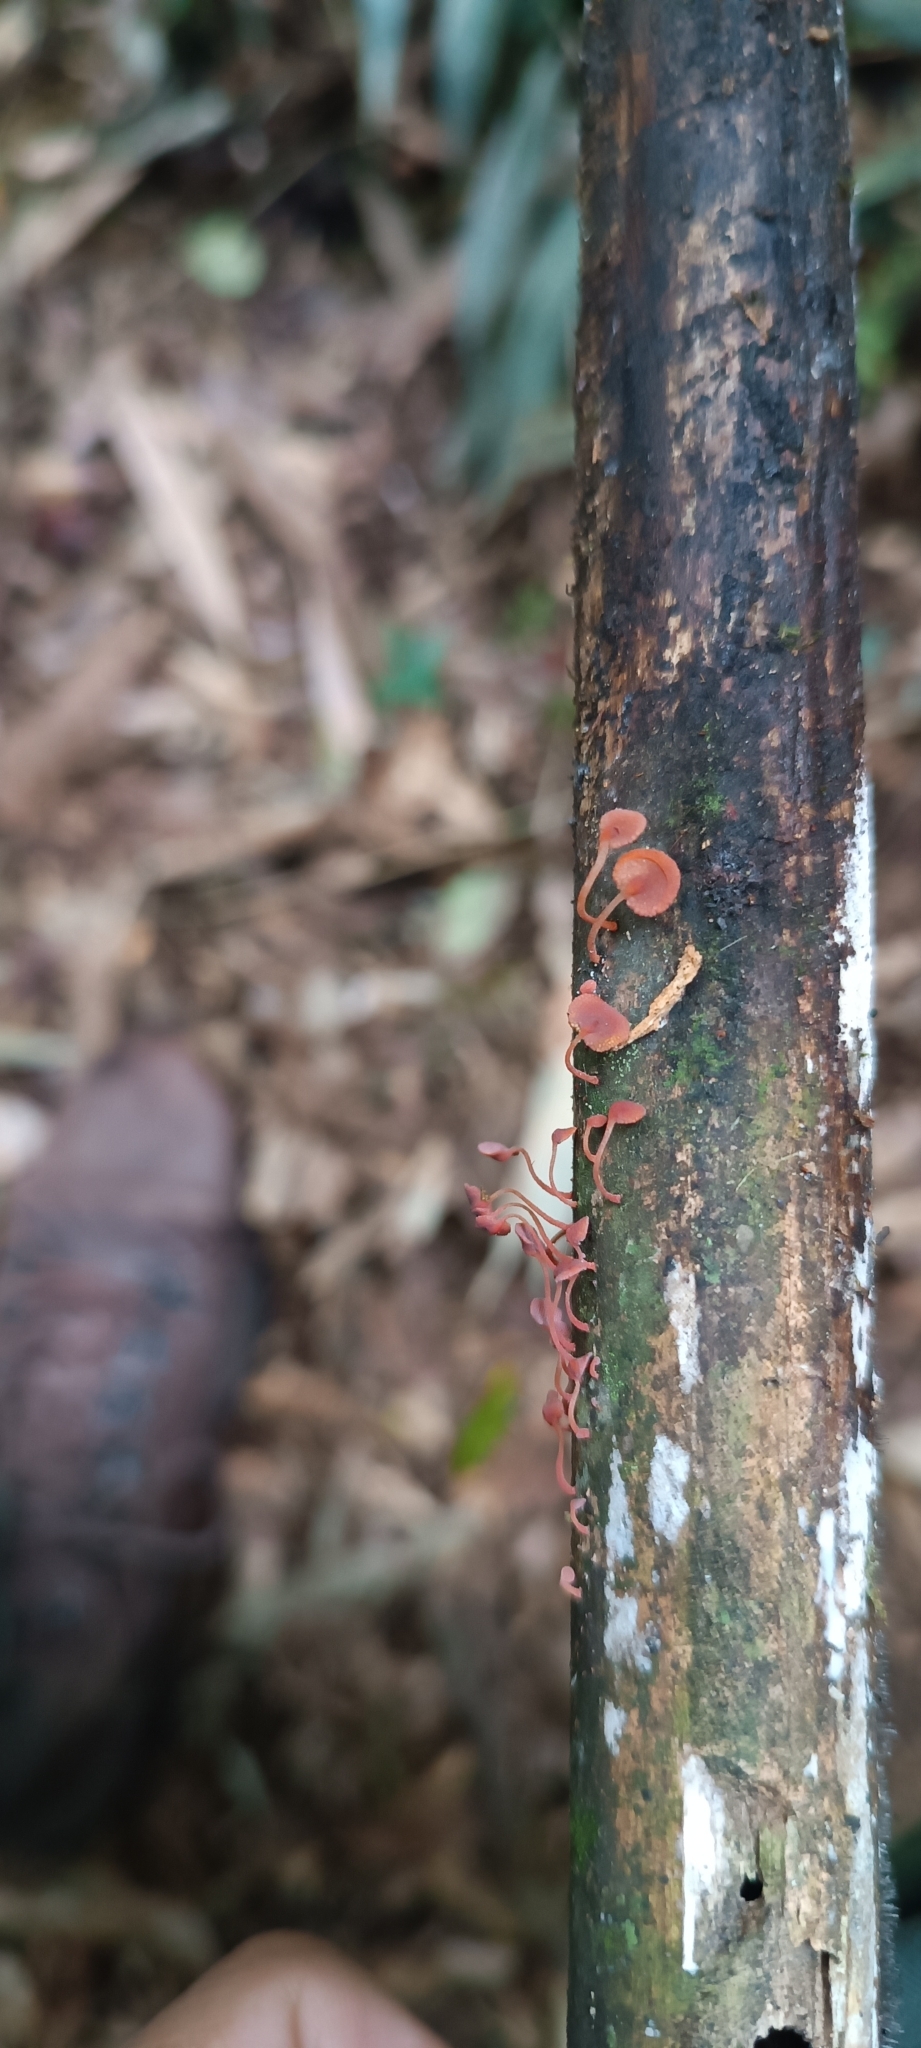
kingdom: Fungi
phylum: Basidiomycota
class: Dacrymycetes
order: Dacrymycetales
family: Dacrymycetaceae
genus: Dacryopinax
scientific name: Dacryopinax elegans
